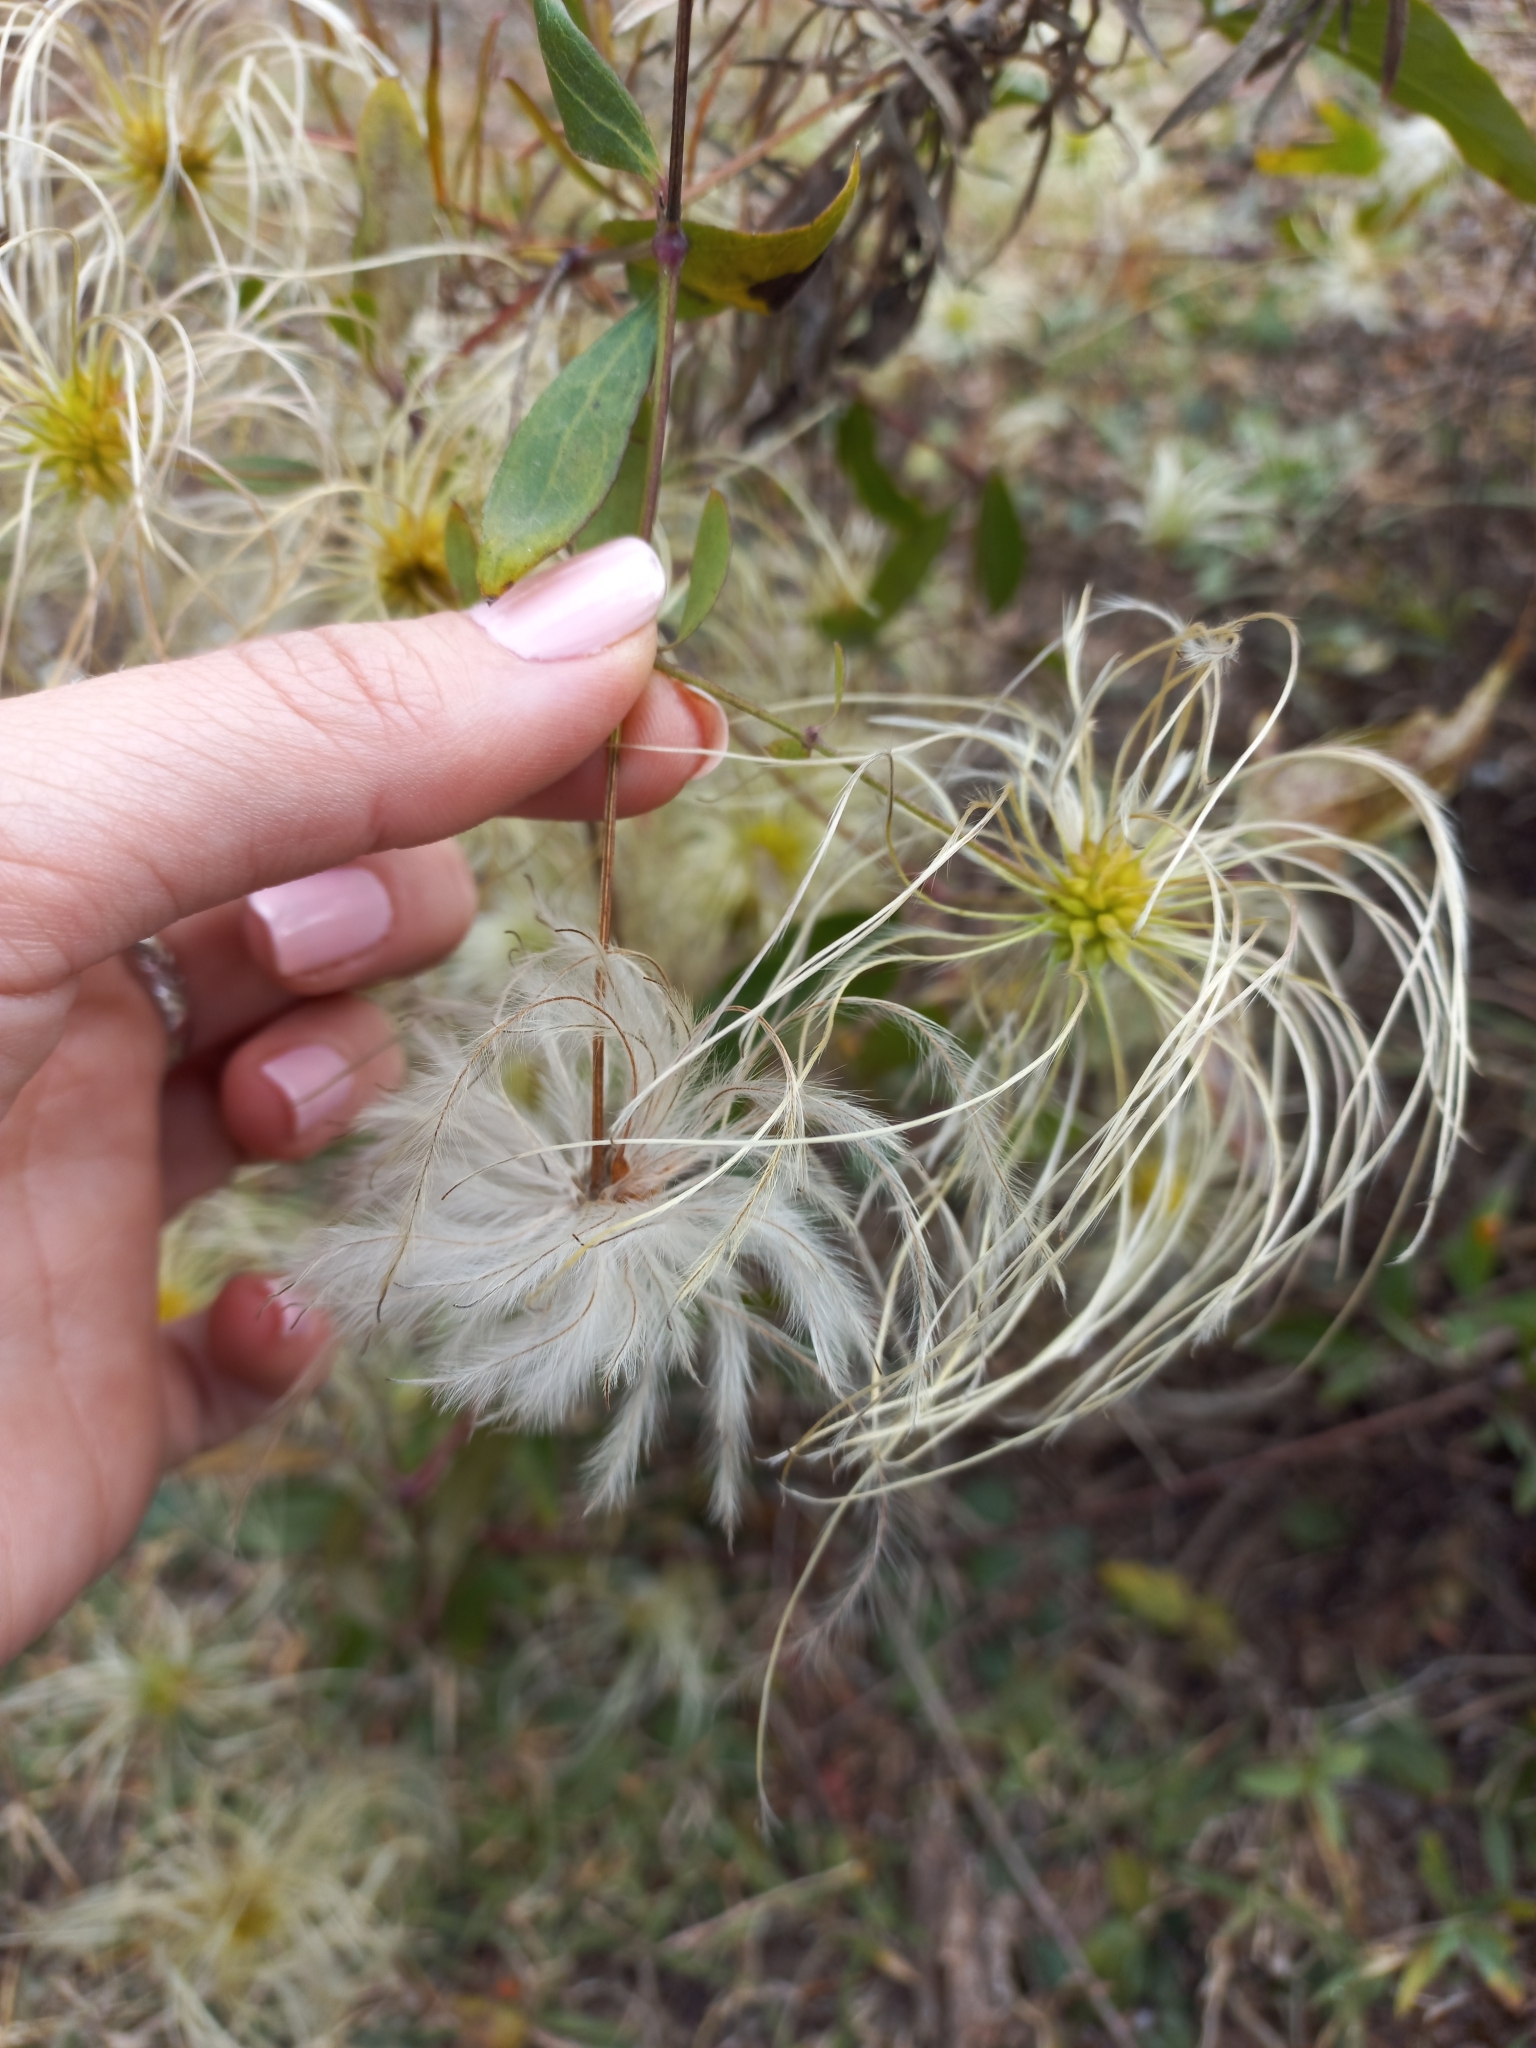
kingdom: Plantae
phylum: Tracheophyta
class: Magnoliopsida
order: Ranunculales
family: Ranunculaceae
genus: Clematis
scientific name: Clematis montevidensis
